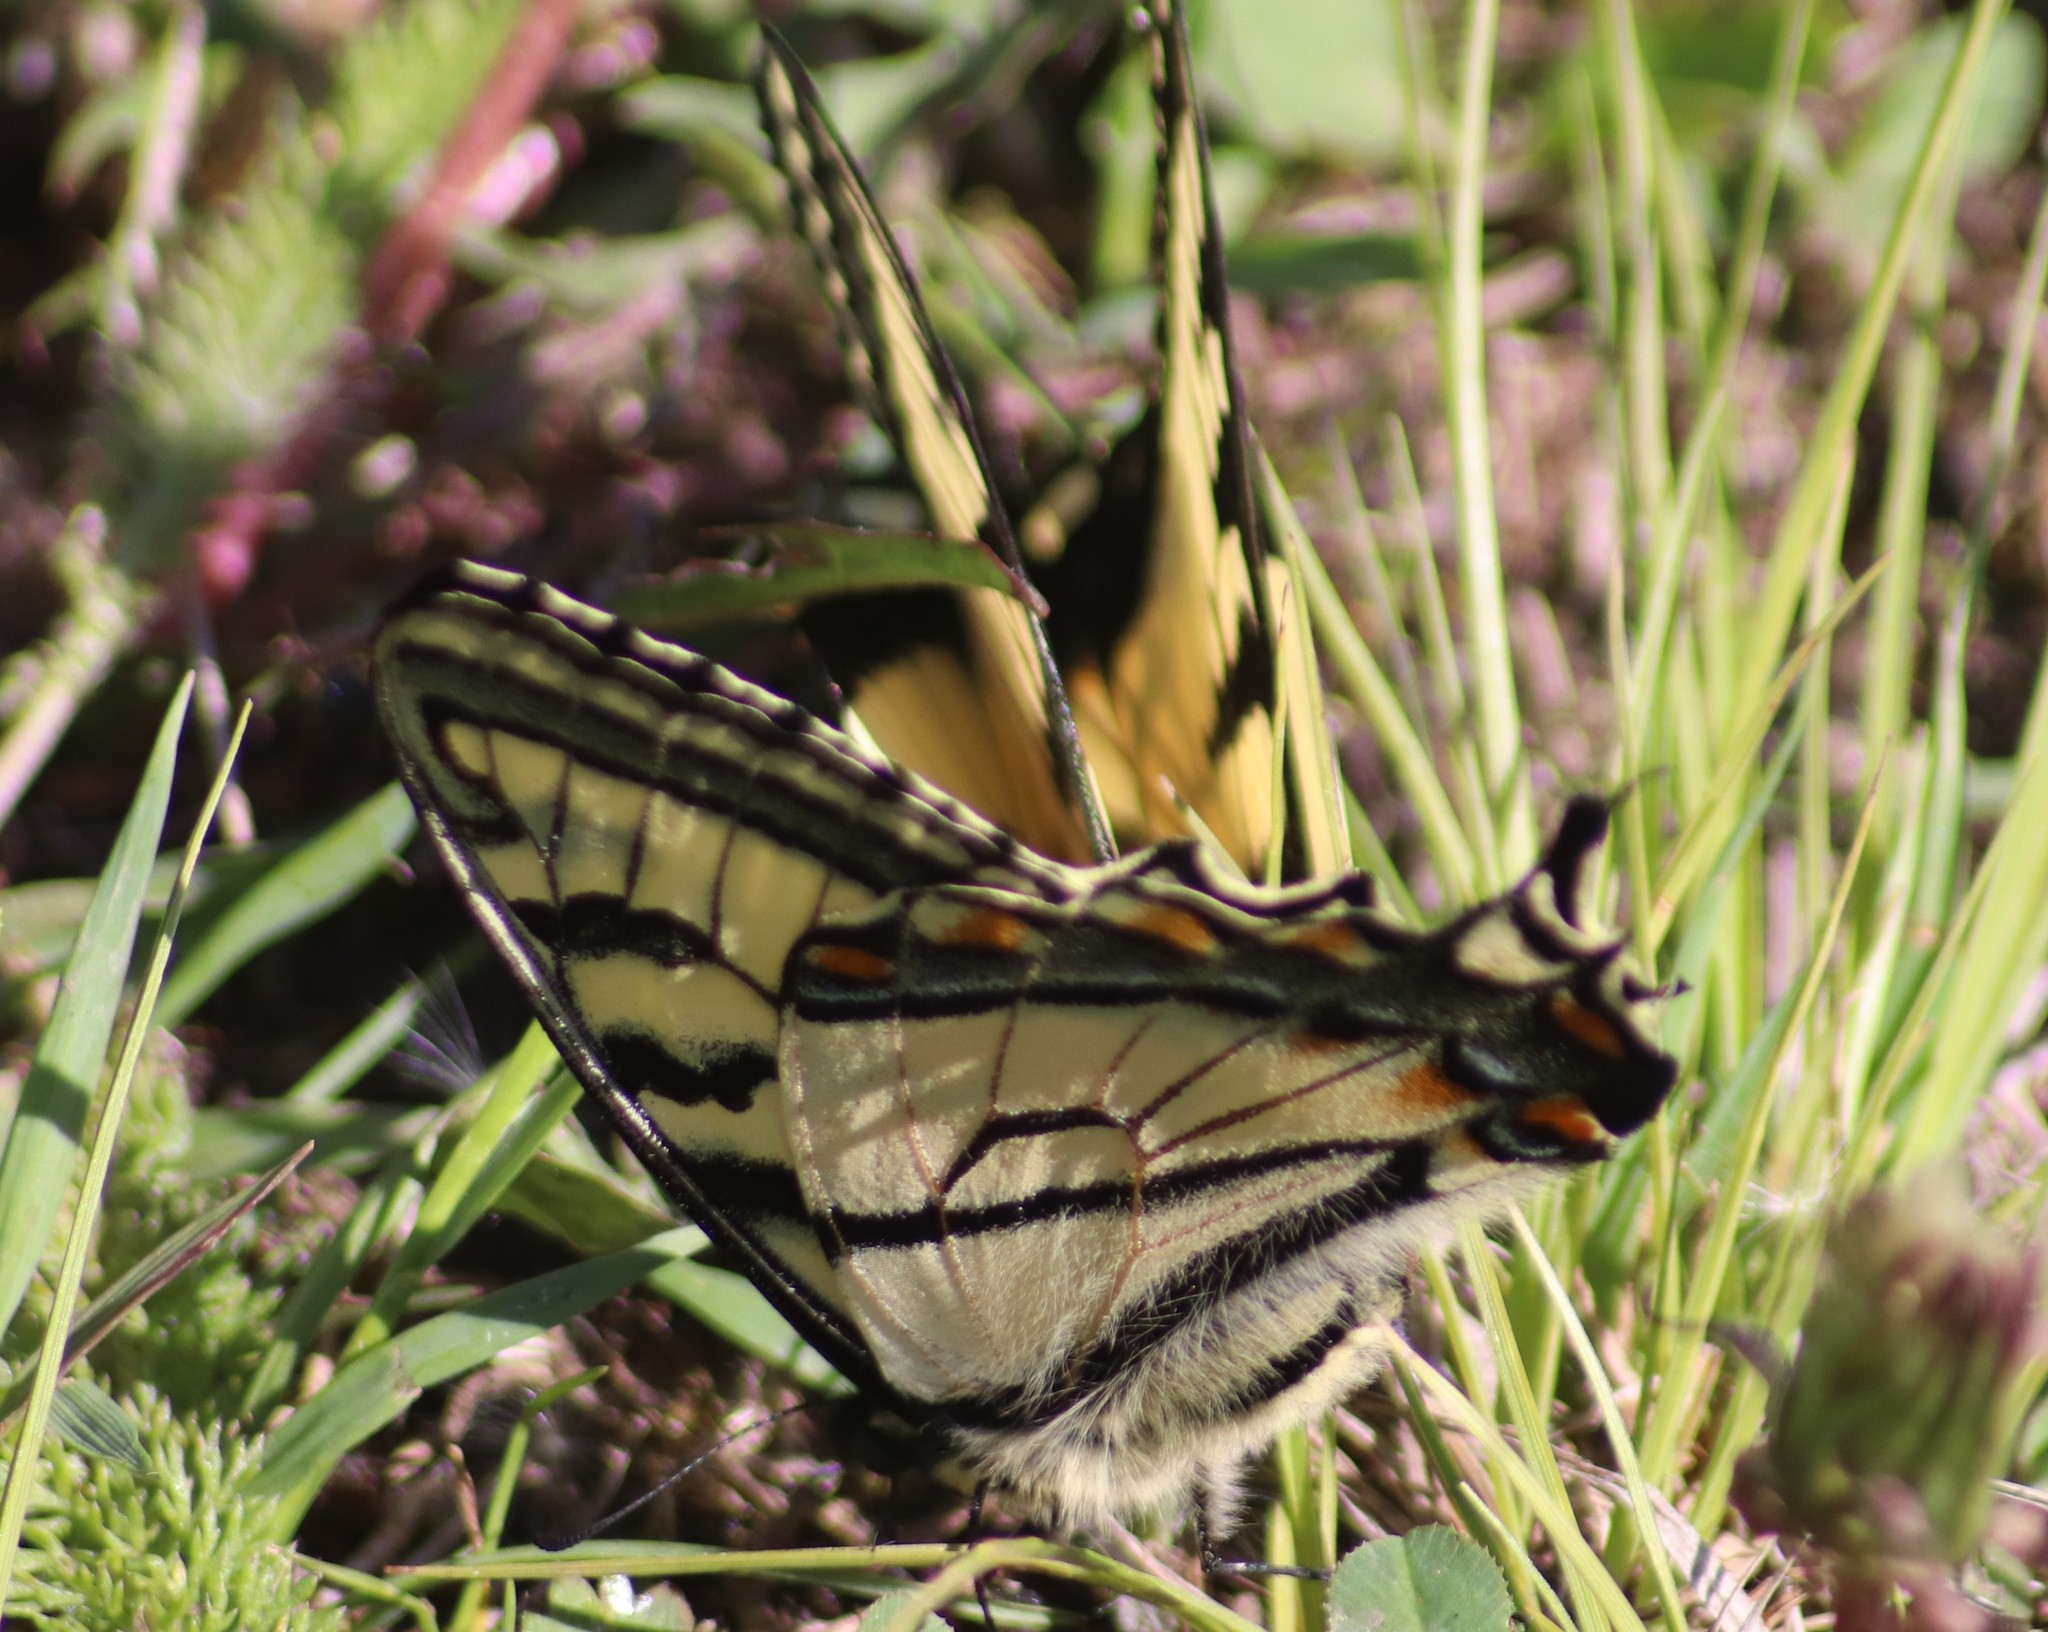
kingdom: Animalia
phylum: Arthropoda
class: Insecta
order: Lepidoptera
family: Papilionidae
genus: Papilio
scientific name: Papilio canadensis
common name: Canadian tiger swallowtail
